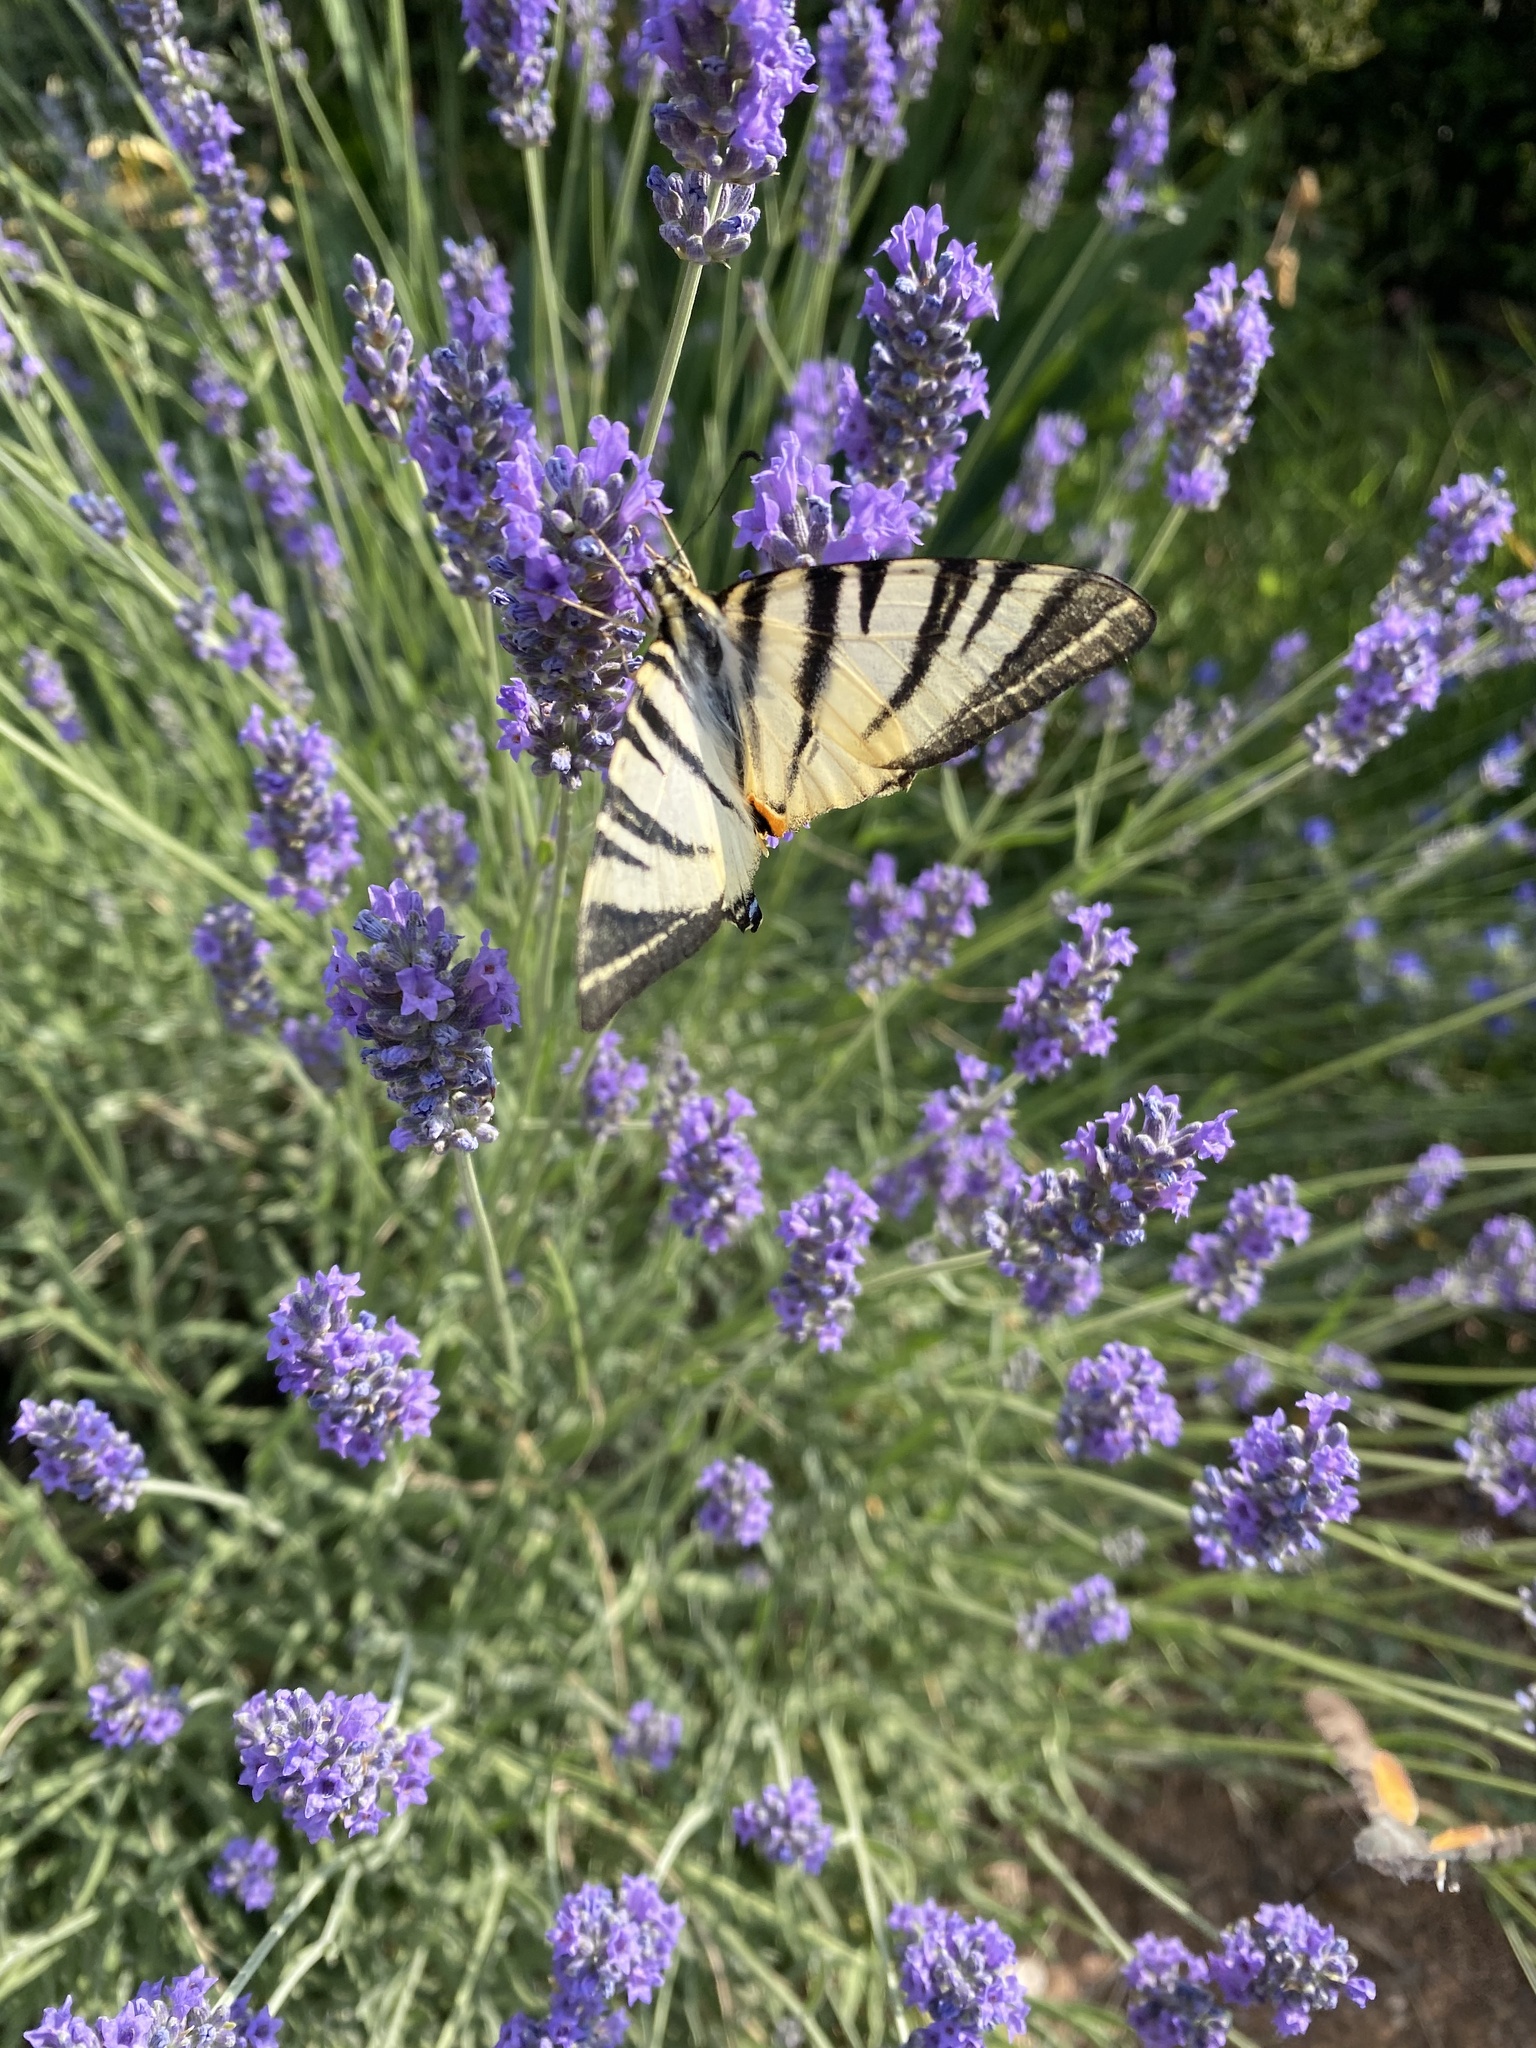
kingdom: Animalia
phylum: Arthropoda
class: Insecta
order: Lepidoptera
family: Papilionidae
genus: Iphiclides
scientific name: Iphiclides podalirius
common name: Scarce swallowtail
